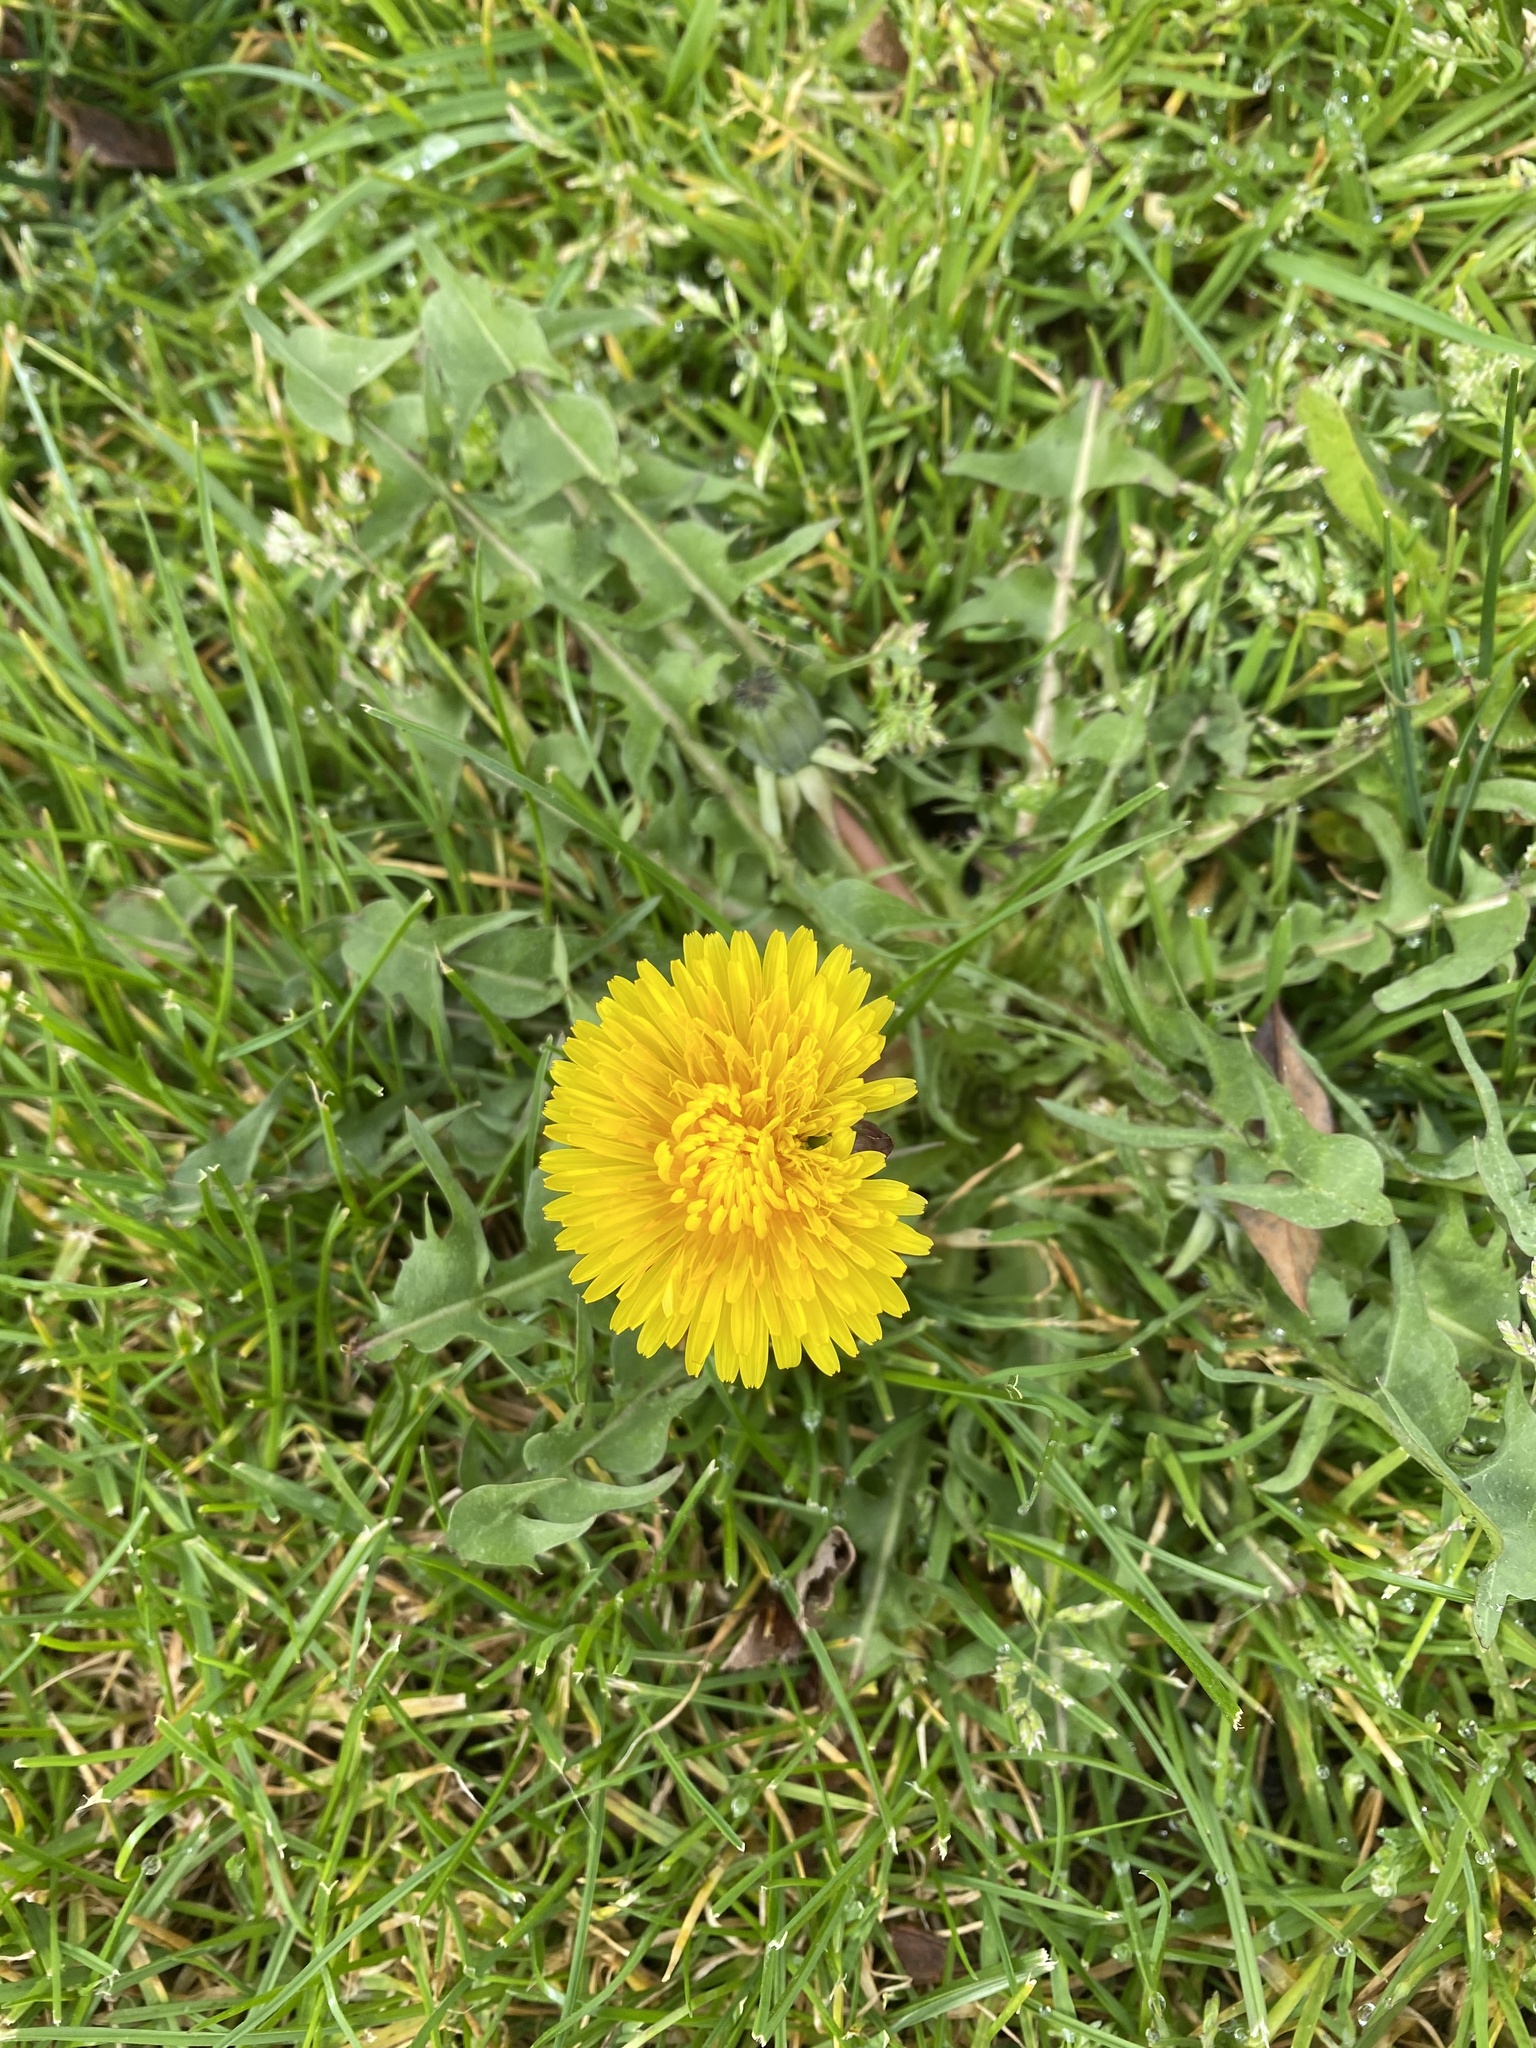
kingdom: Plantae
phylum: Tracheophyta
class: Magnoliopsida
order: Asterales
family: Asteraceae
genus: Taraxacum
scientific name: Taraxacum officinale
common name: Common dandelion
